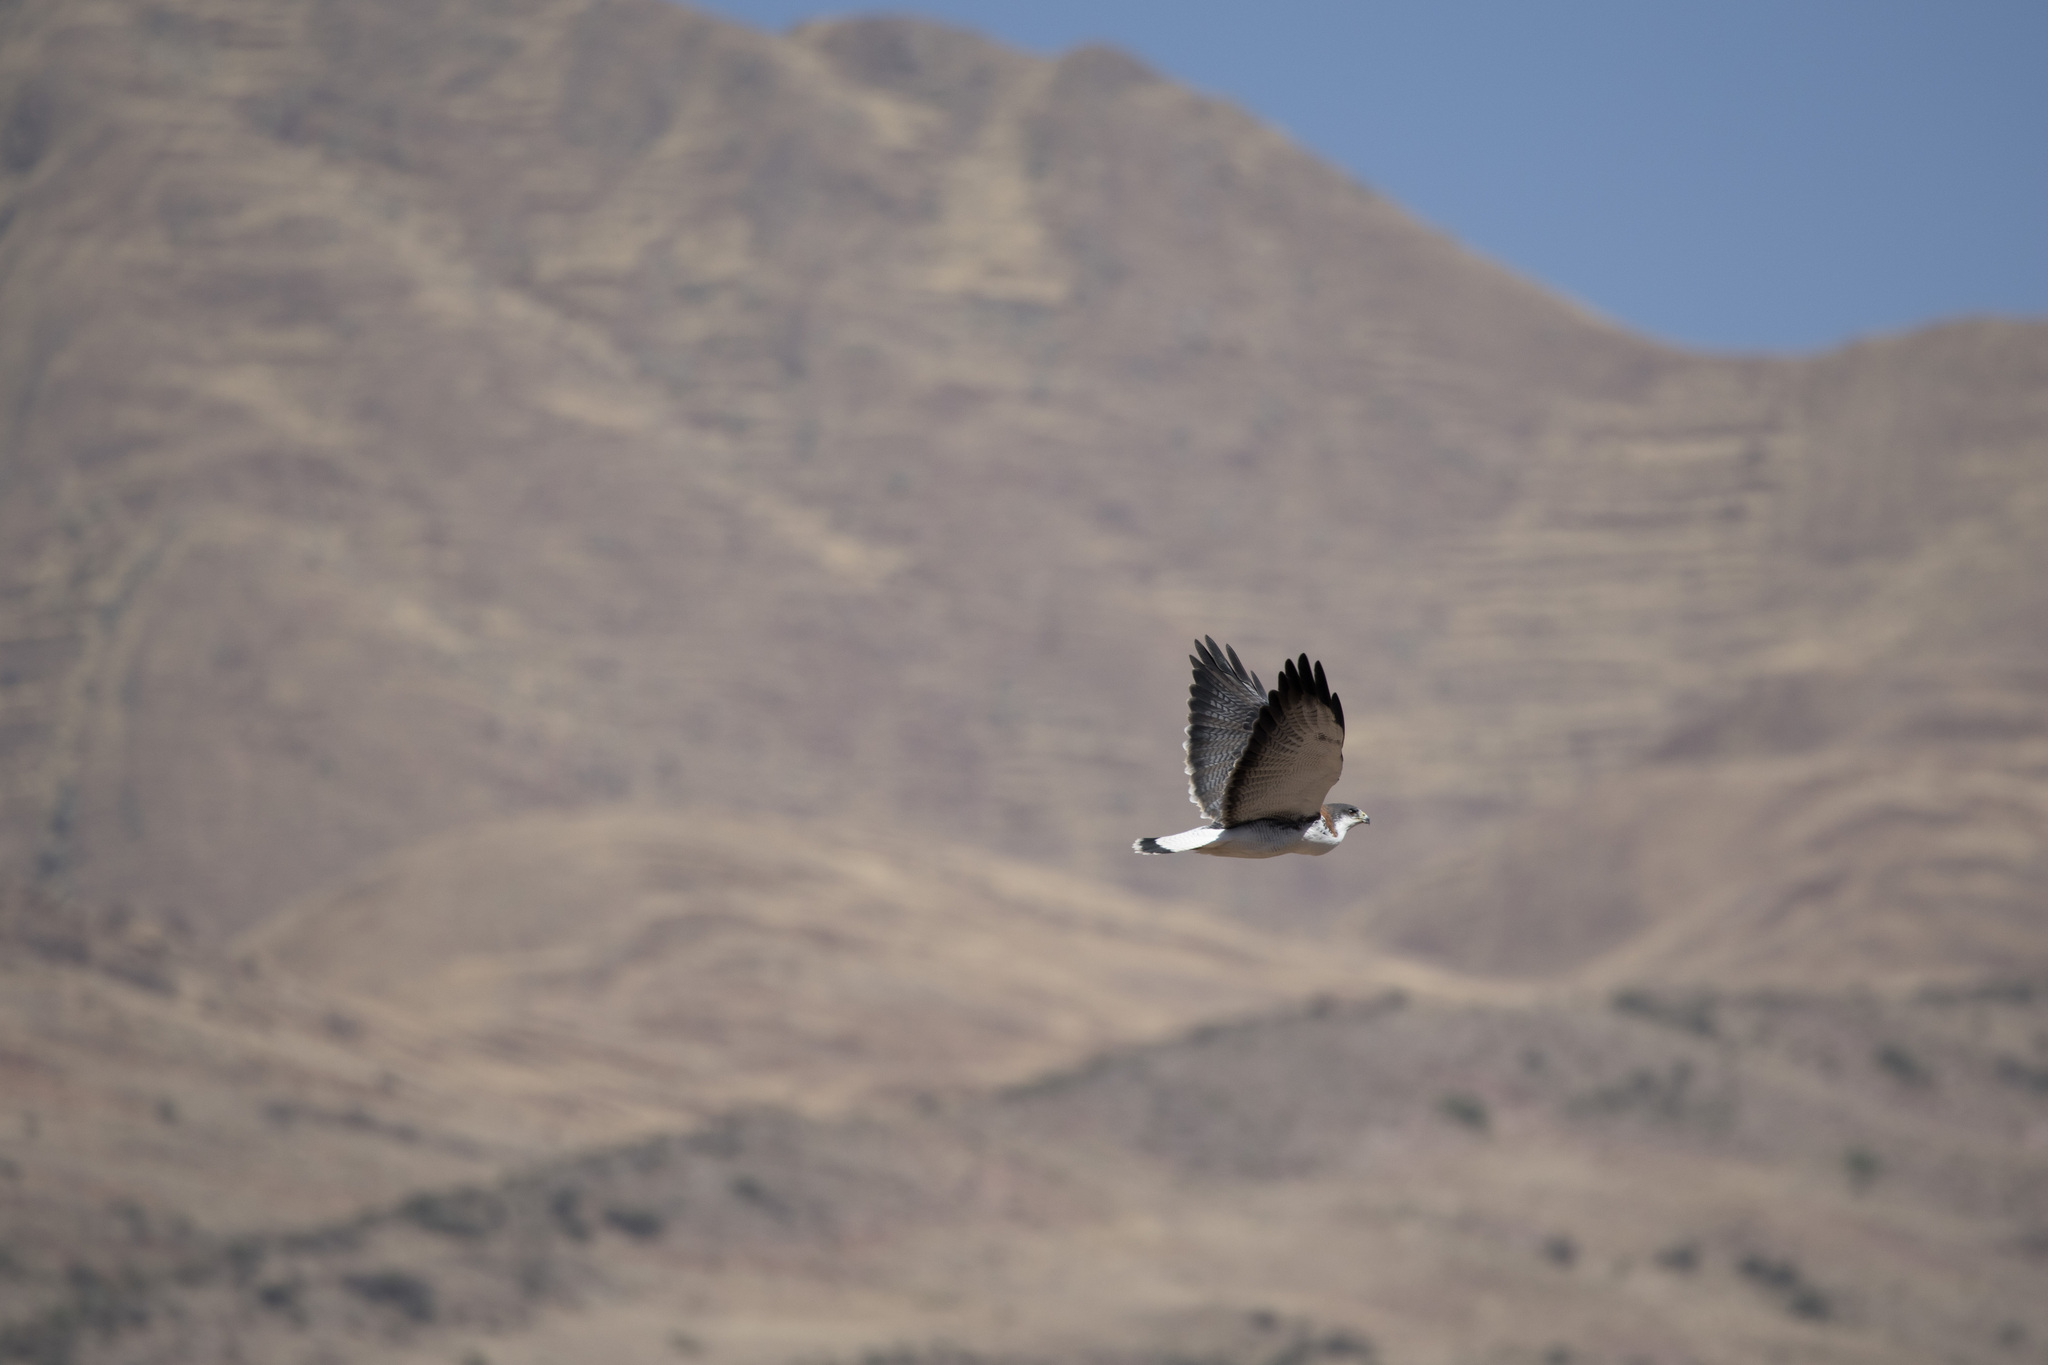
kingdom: Animalia
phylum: Chordata
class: Aves
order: Accipitriformes
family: Accipitridae
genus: Buteo
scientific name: Buteo polyosoma
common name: Variable hawk
